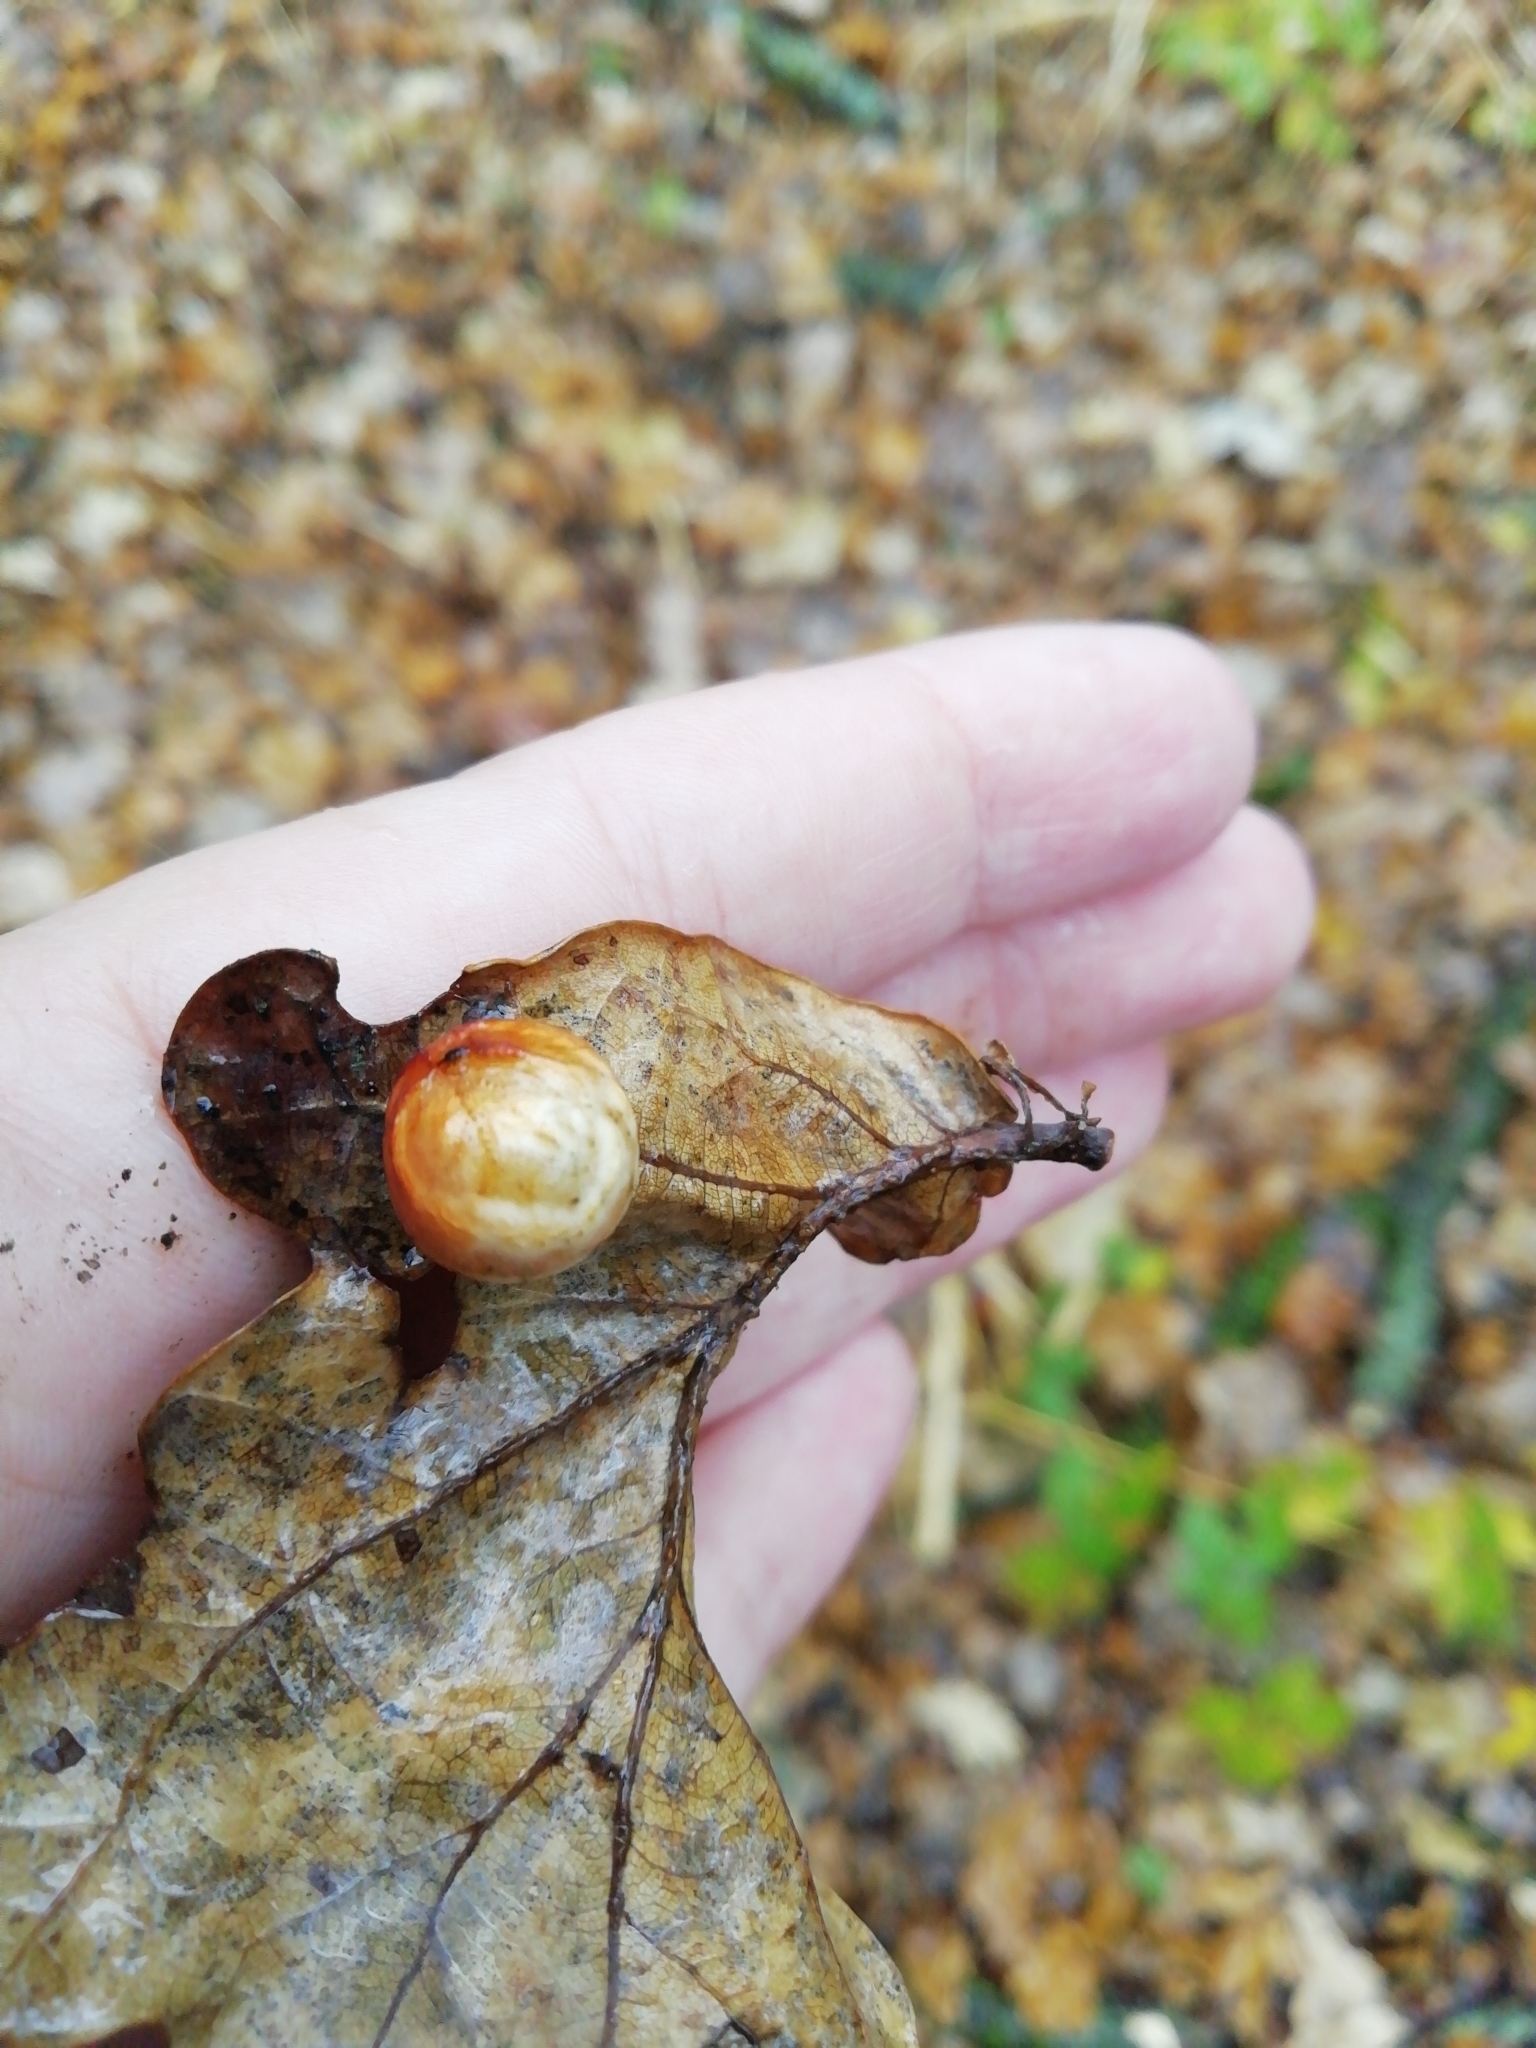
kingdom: Animalia
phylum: Arthropoda
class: Insecta
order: Hymenoptera
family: Cynipidae
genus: Cynips
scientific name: Cynips longiventris
